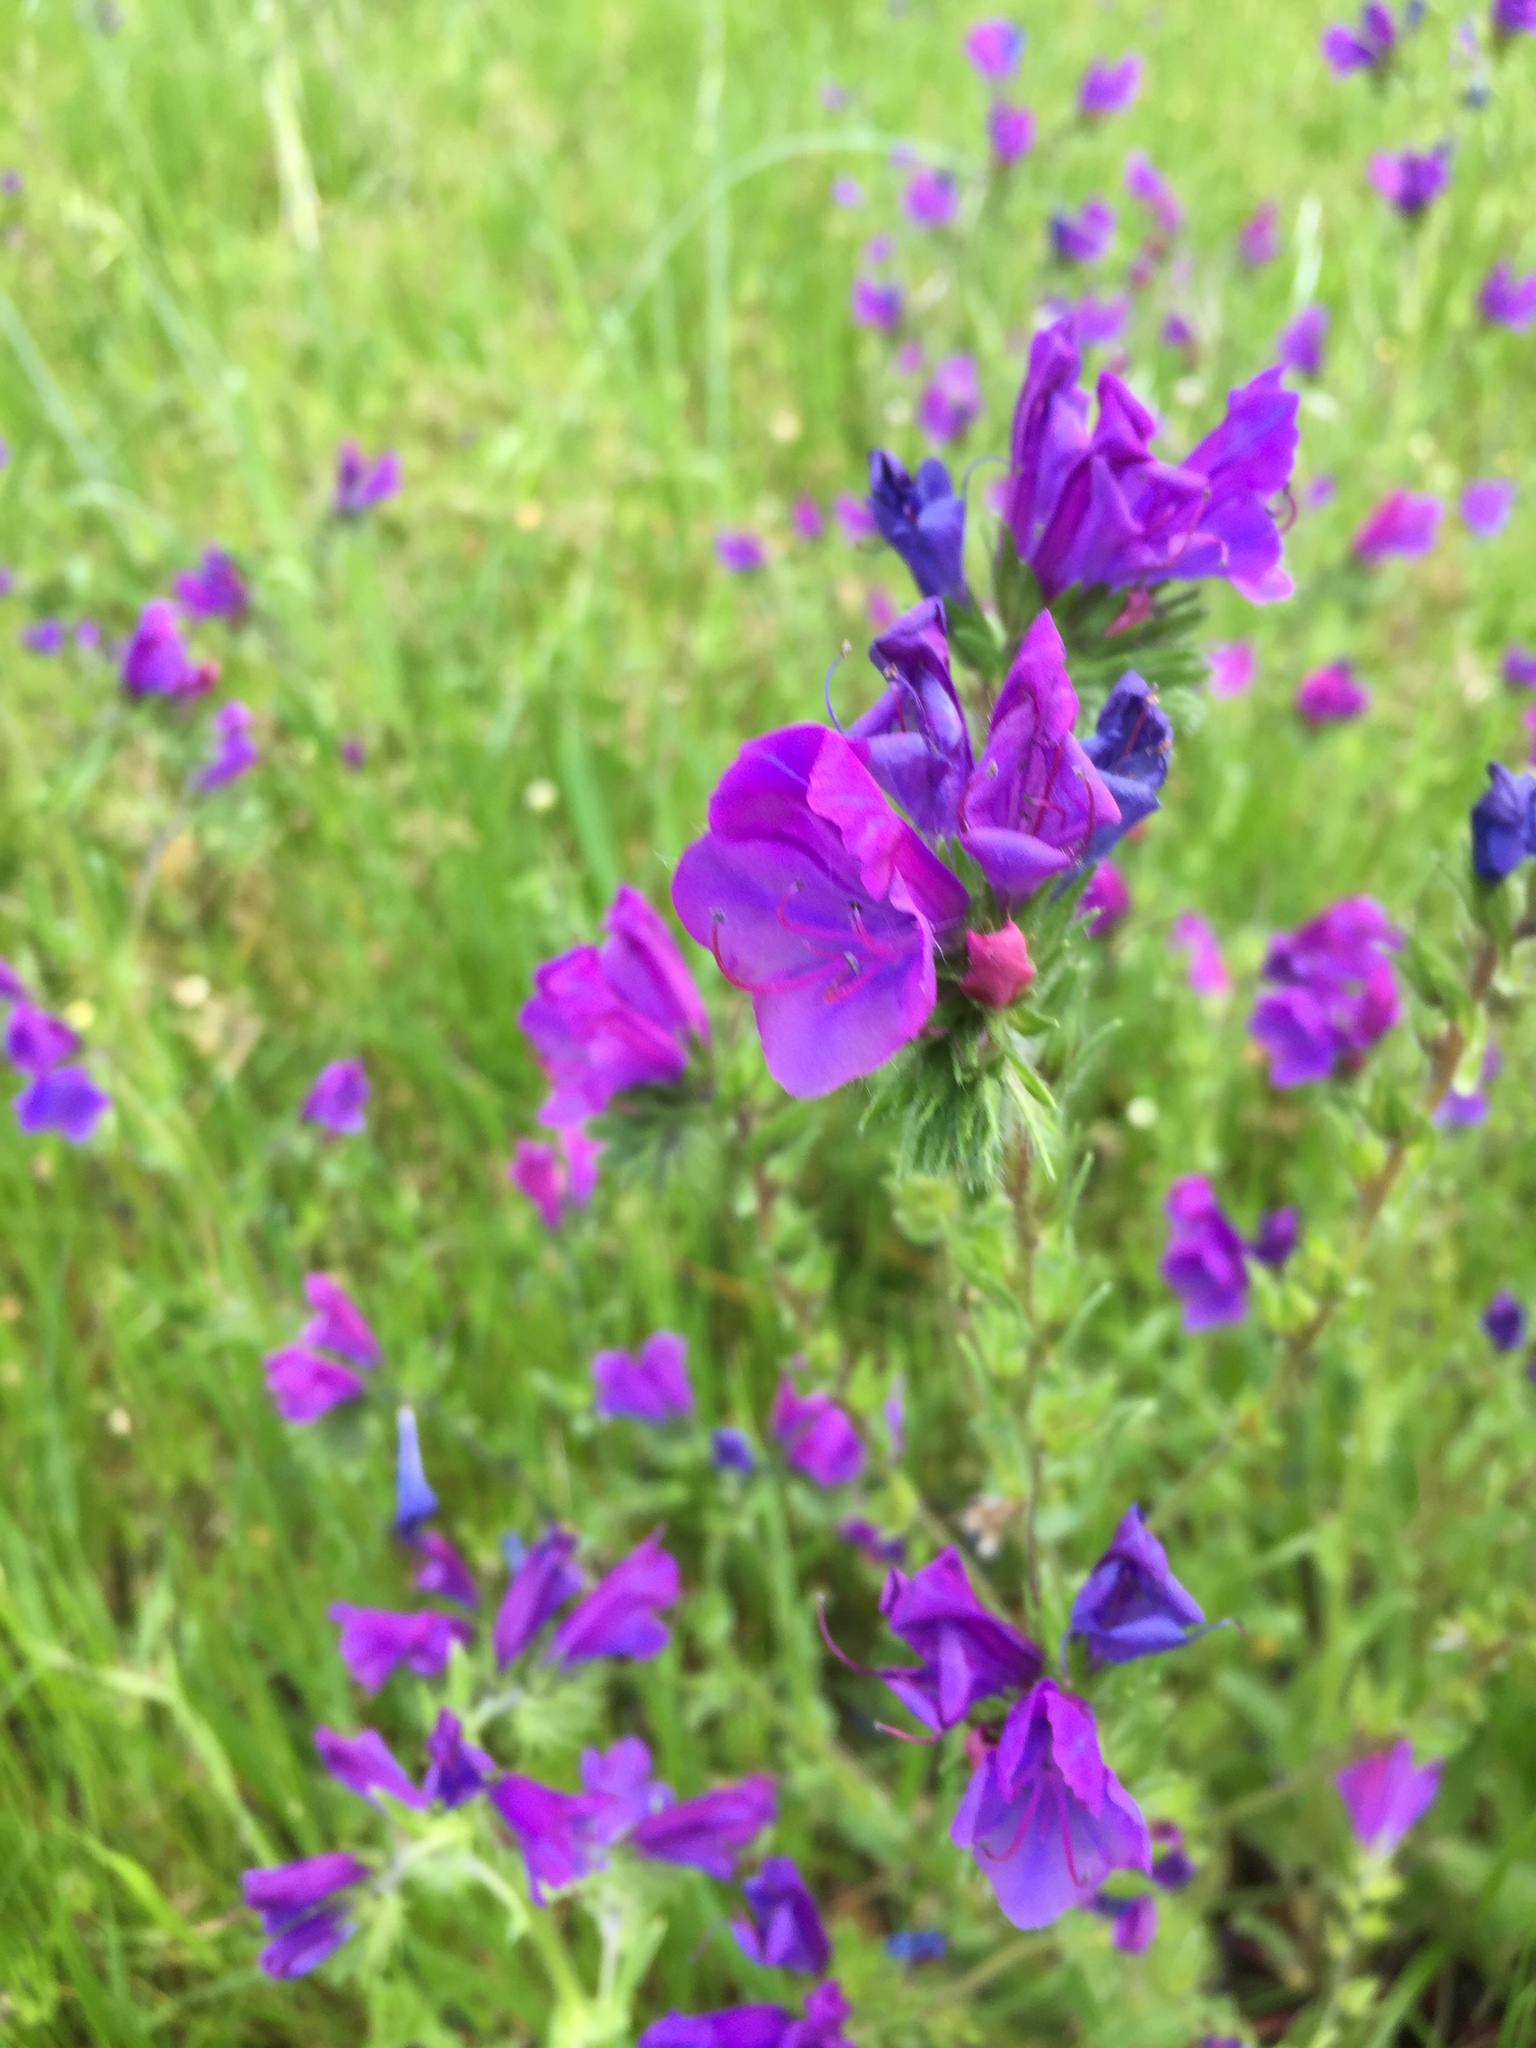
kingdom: Plantae
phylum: Tracheophyta
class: Magnoliopsida
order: Boraginales
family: Boraginaceae
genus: Echium
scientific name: Echium plantagineum
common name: Purple viper's-bugloss
